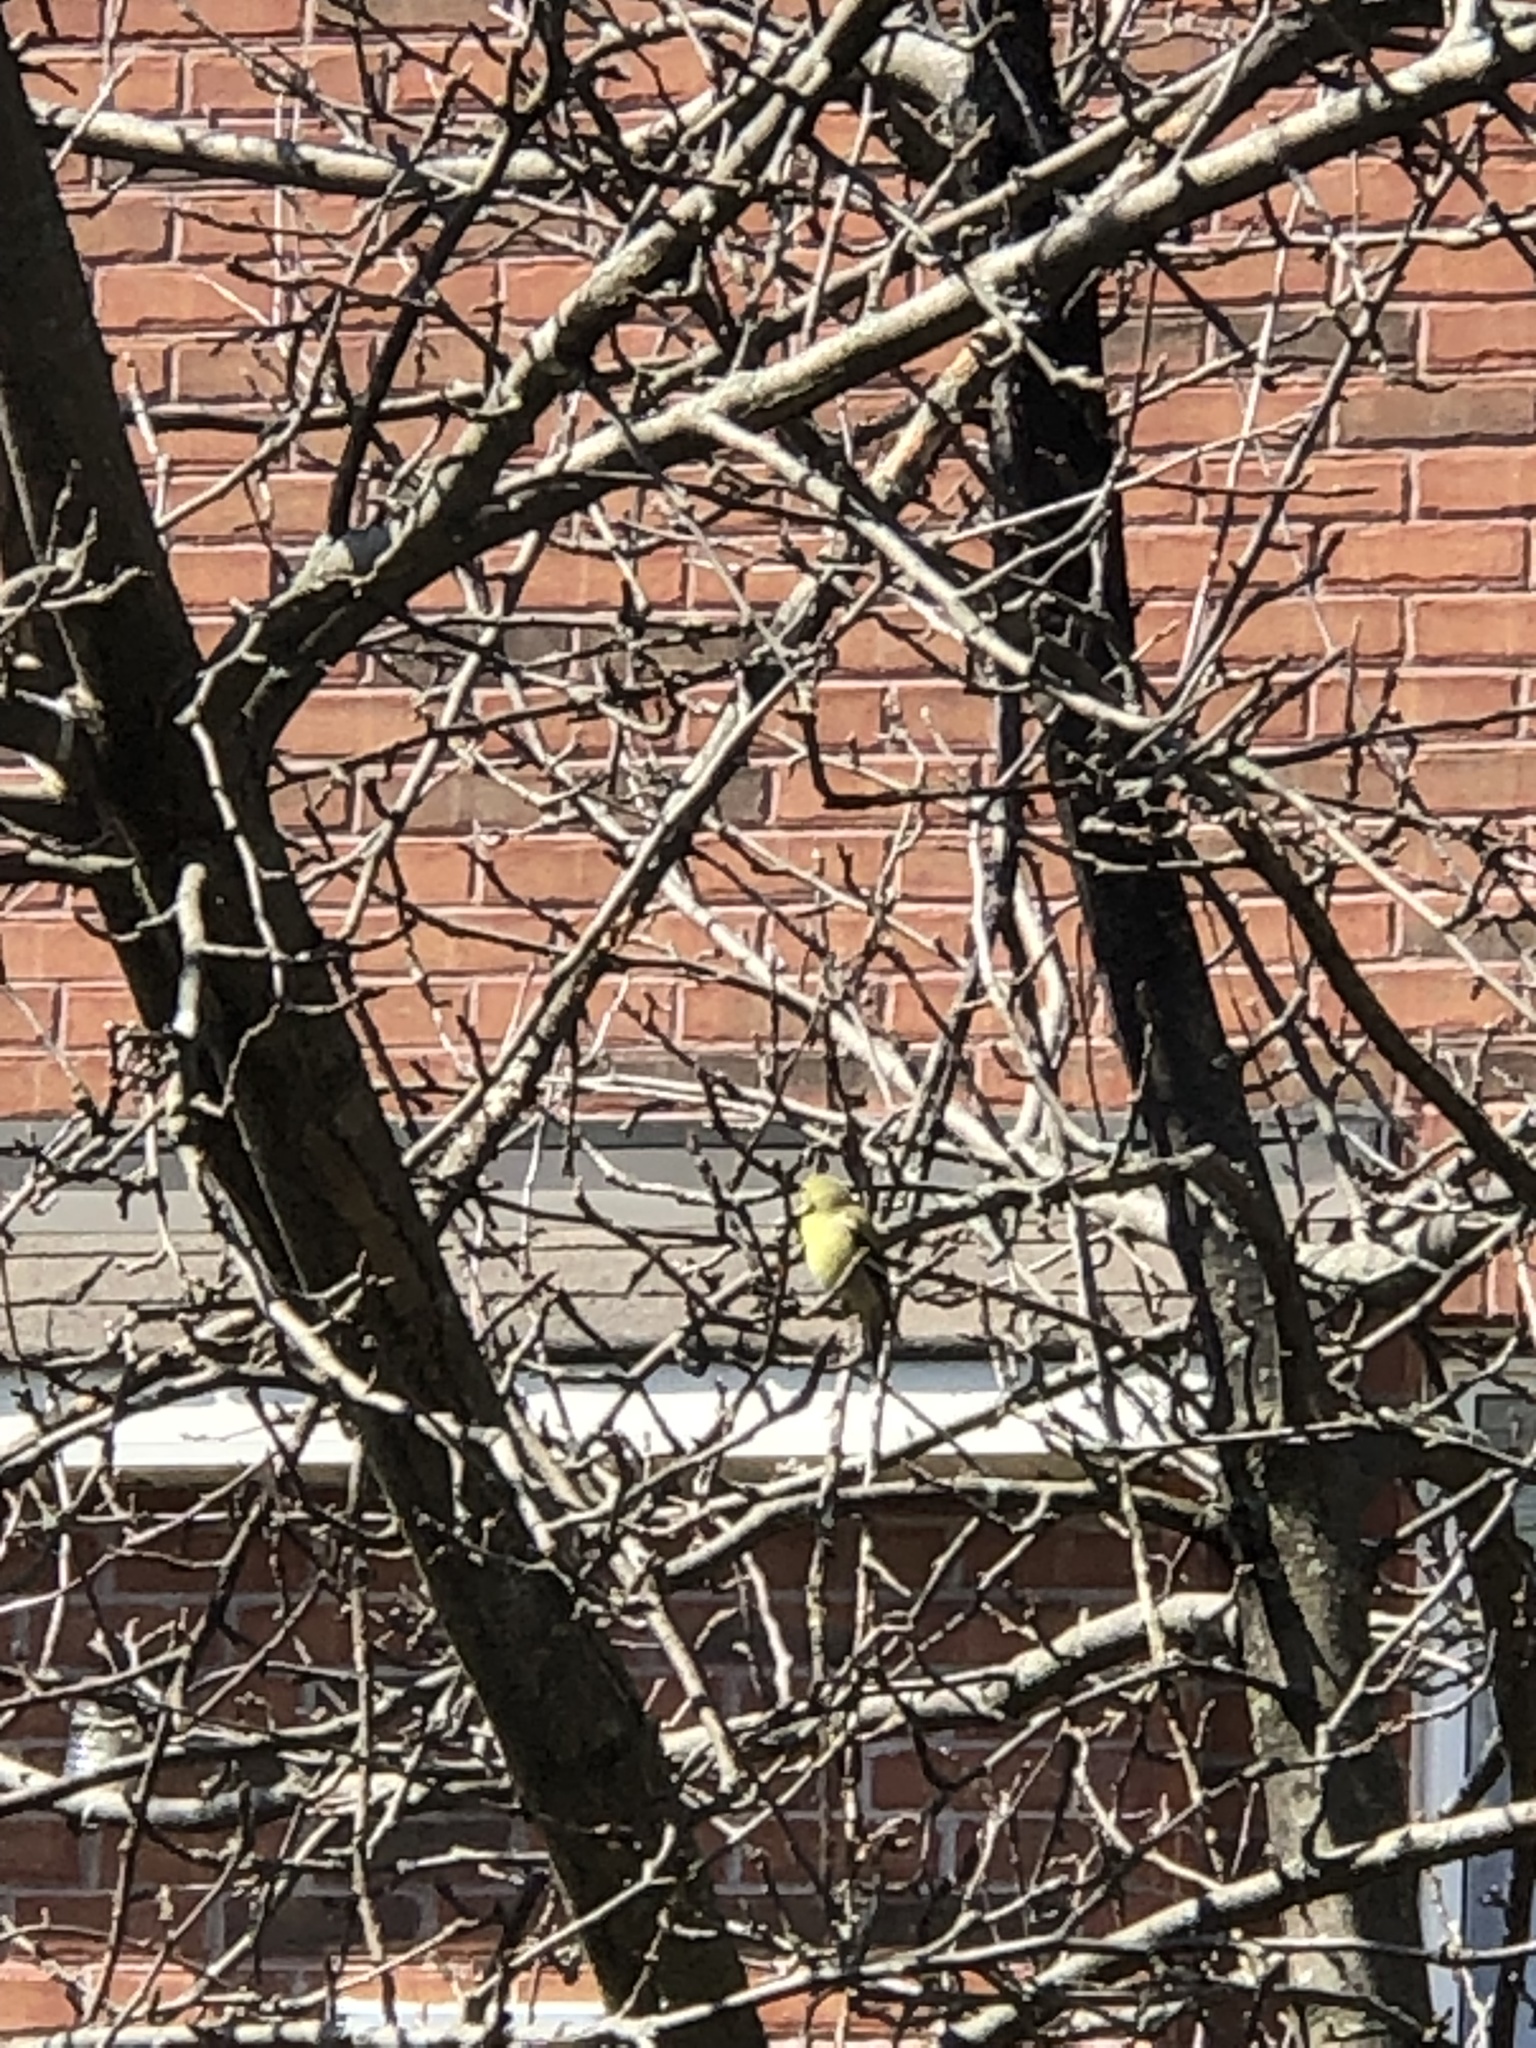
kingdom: Animalia
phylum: Chordata
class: Aves
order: Passeriformes
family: Fringillidae
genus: Spinus
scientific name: Spinus tristis
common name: American goldfinch
